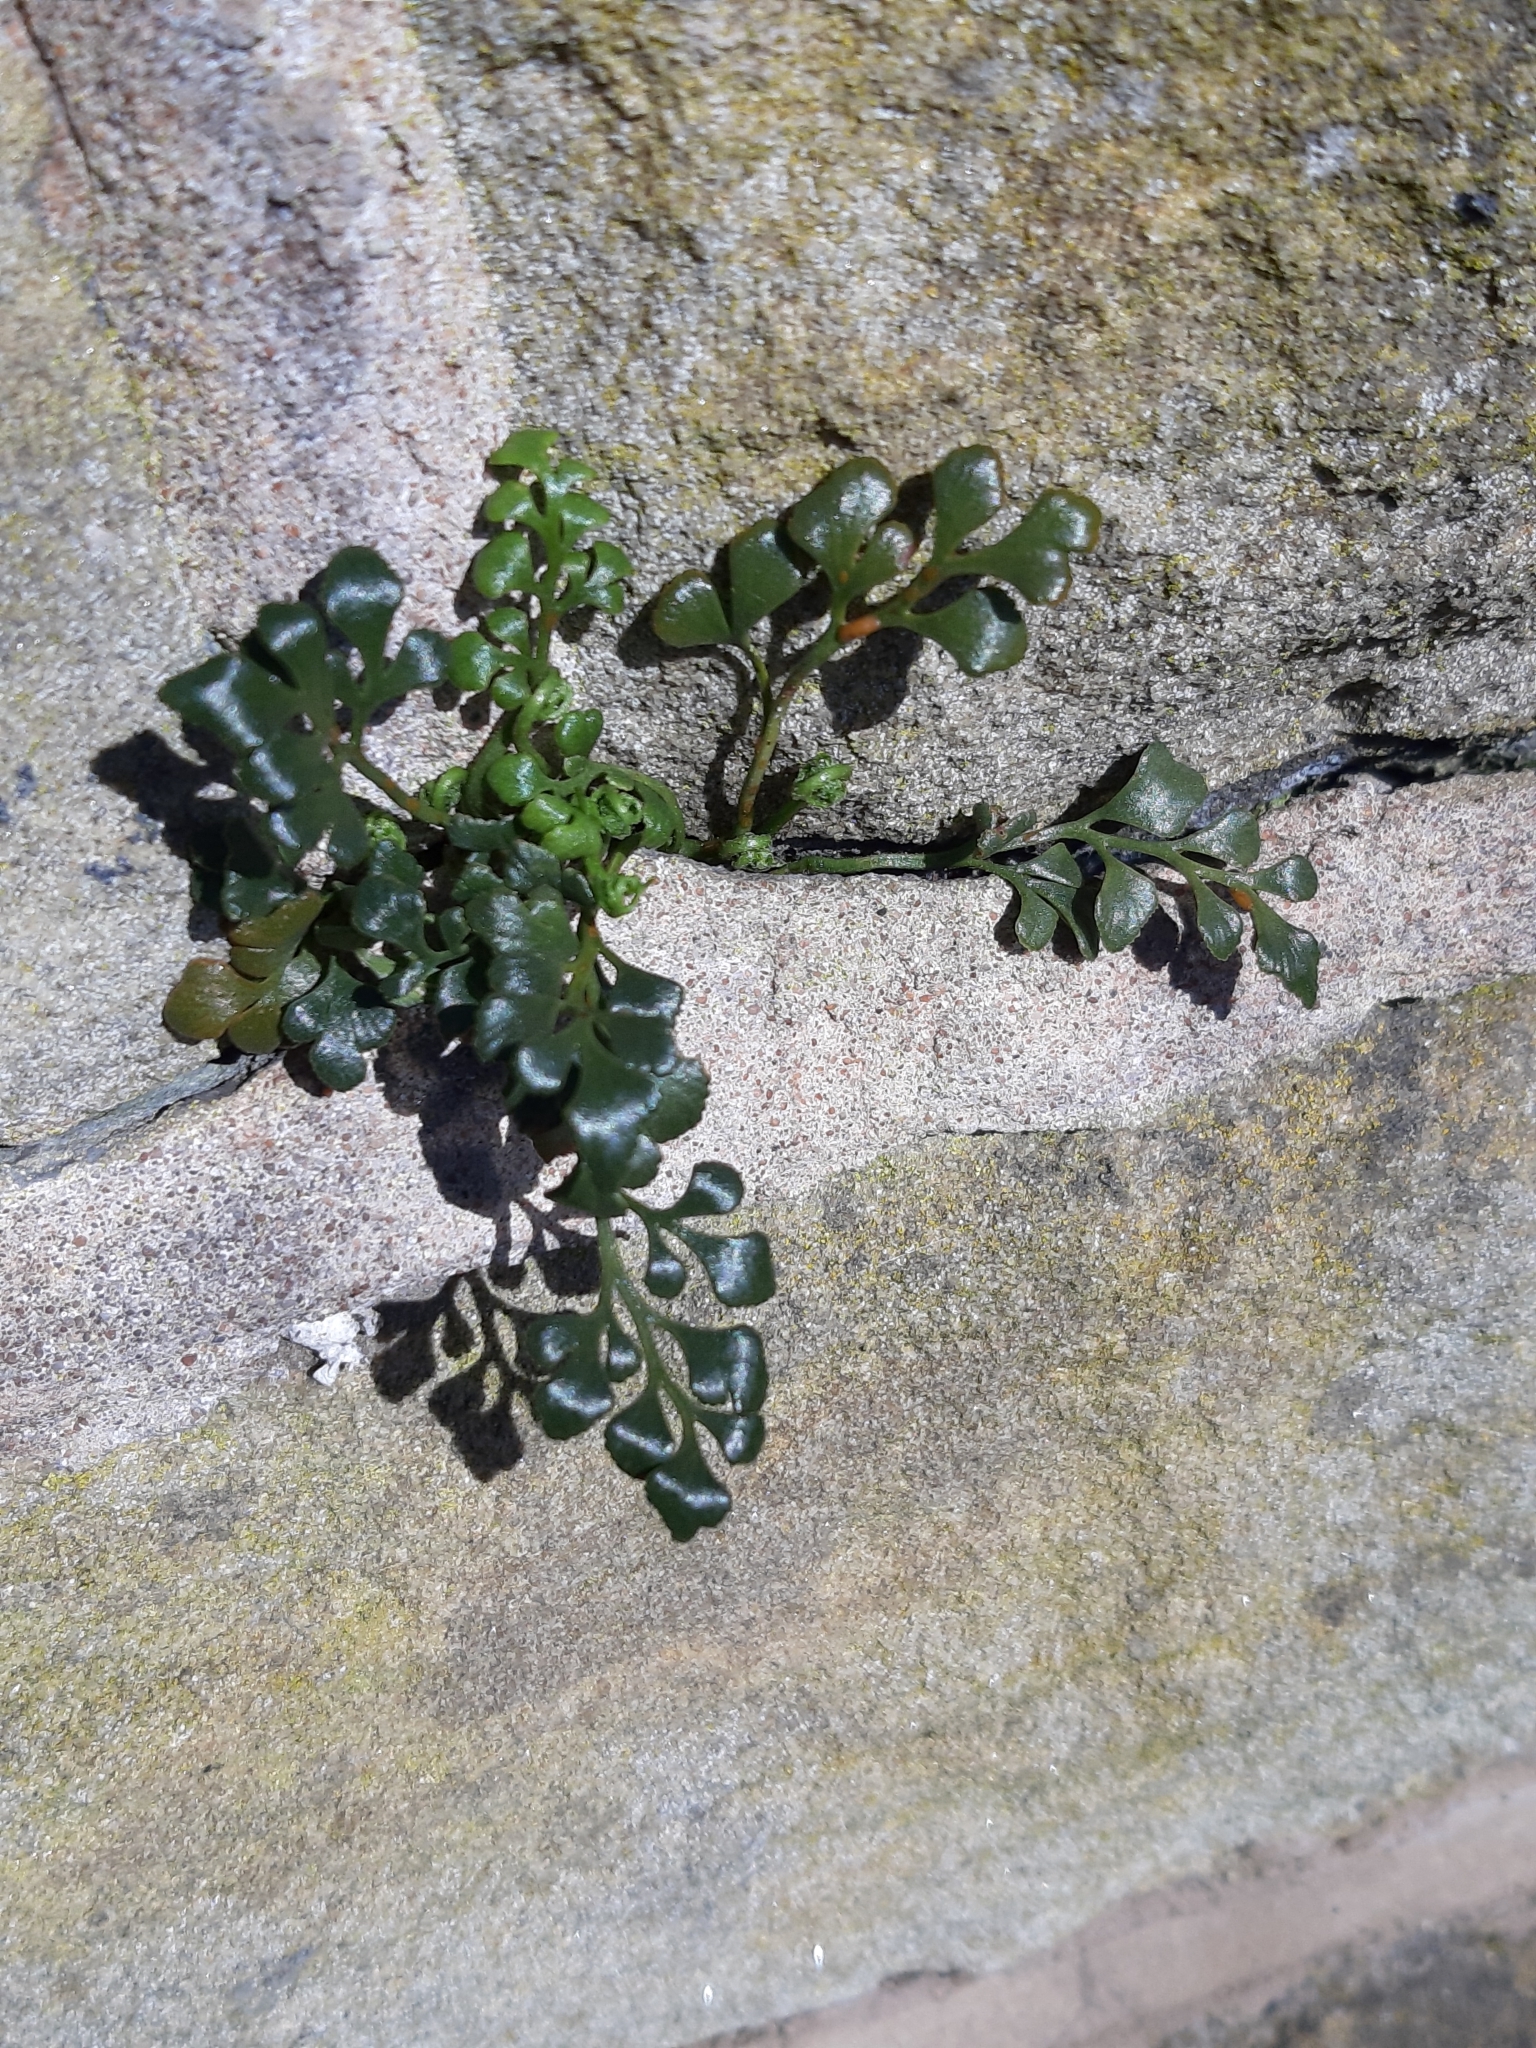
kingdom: Plantae
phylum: Tracheophyta
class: Polypodiopsida
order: Polypodiales
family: Aspleniaceae
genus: Asplenium
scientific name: Asplenium ruta-muraria
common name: Wall-rue
